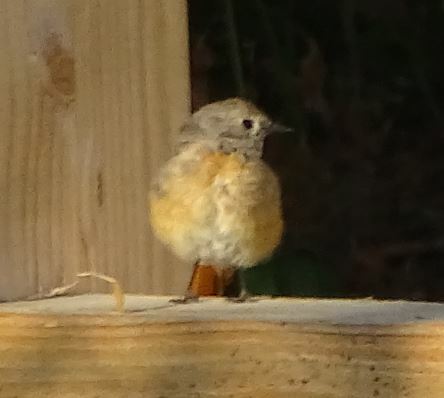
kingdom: Animalia
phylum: Chordata
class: Aves
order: Passeriformes
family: Muscicapidae
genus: Phoenicurus
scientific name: Phoenicurus phoenicurus
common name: Common redstart
